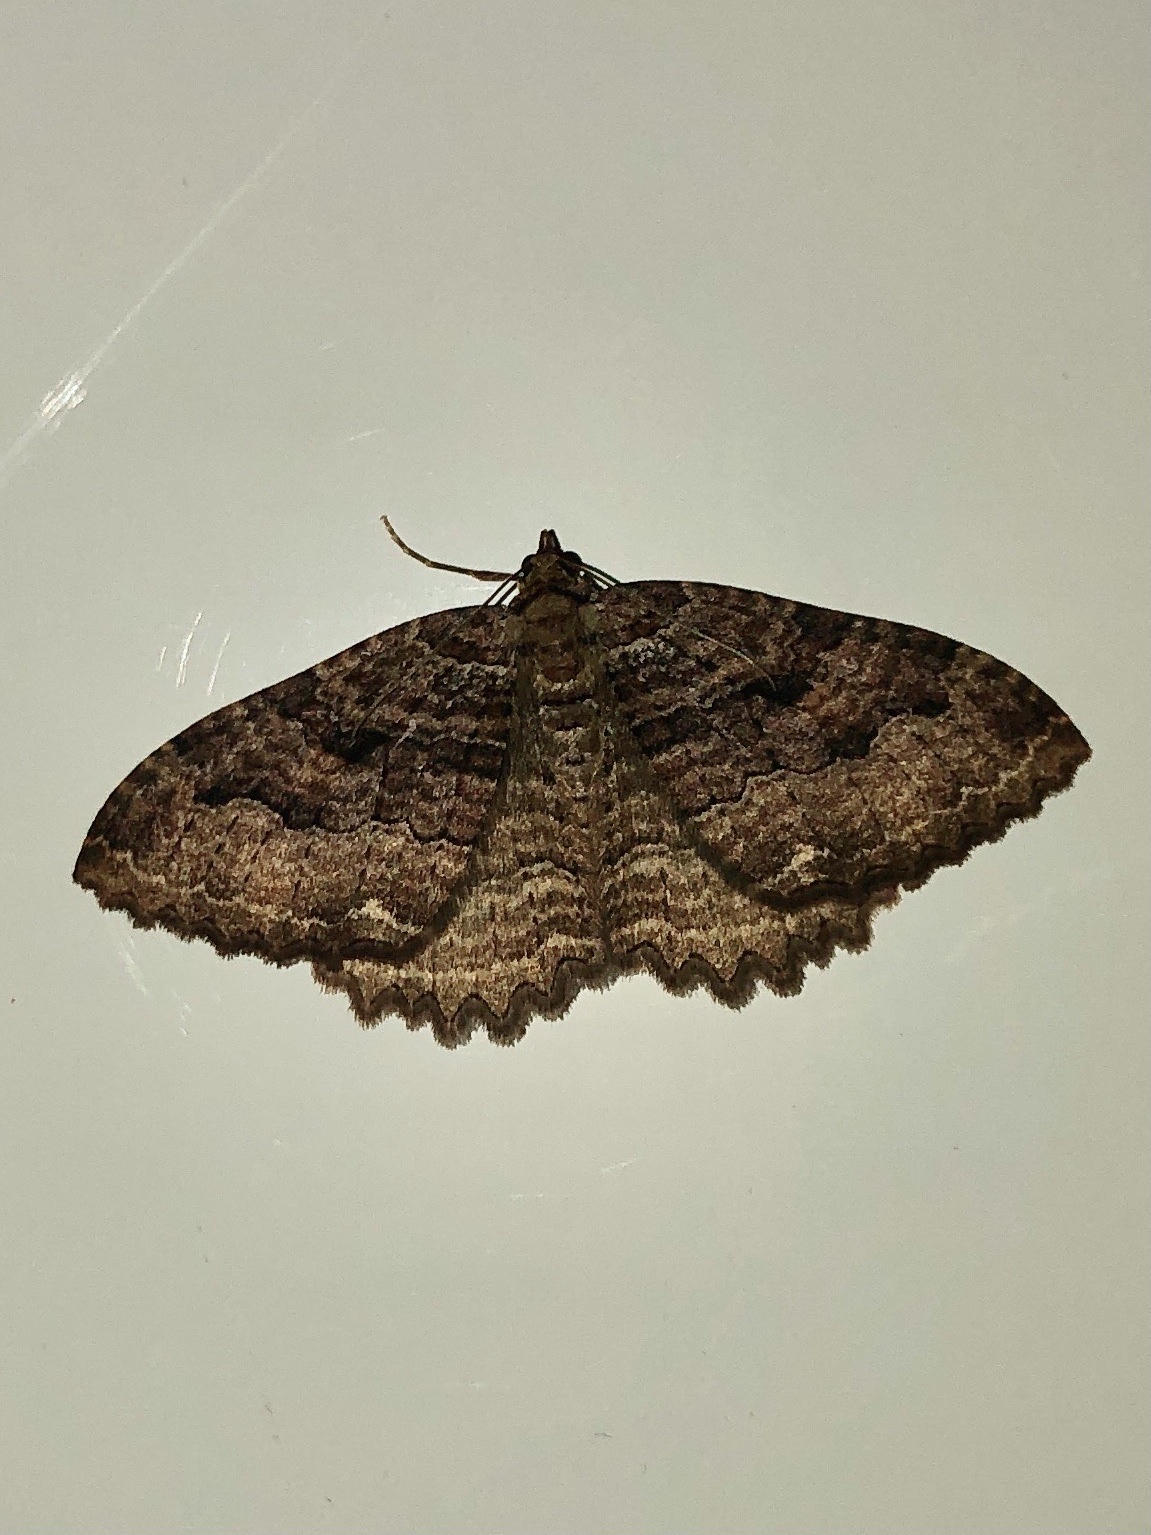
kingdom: Animalia
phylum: Arthropoda
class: Insecta
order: Lepidoptera
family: Geometridae
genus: Triphosa
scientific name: Triphosa haesitata
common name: Tissue moth
